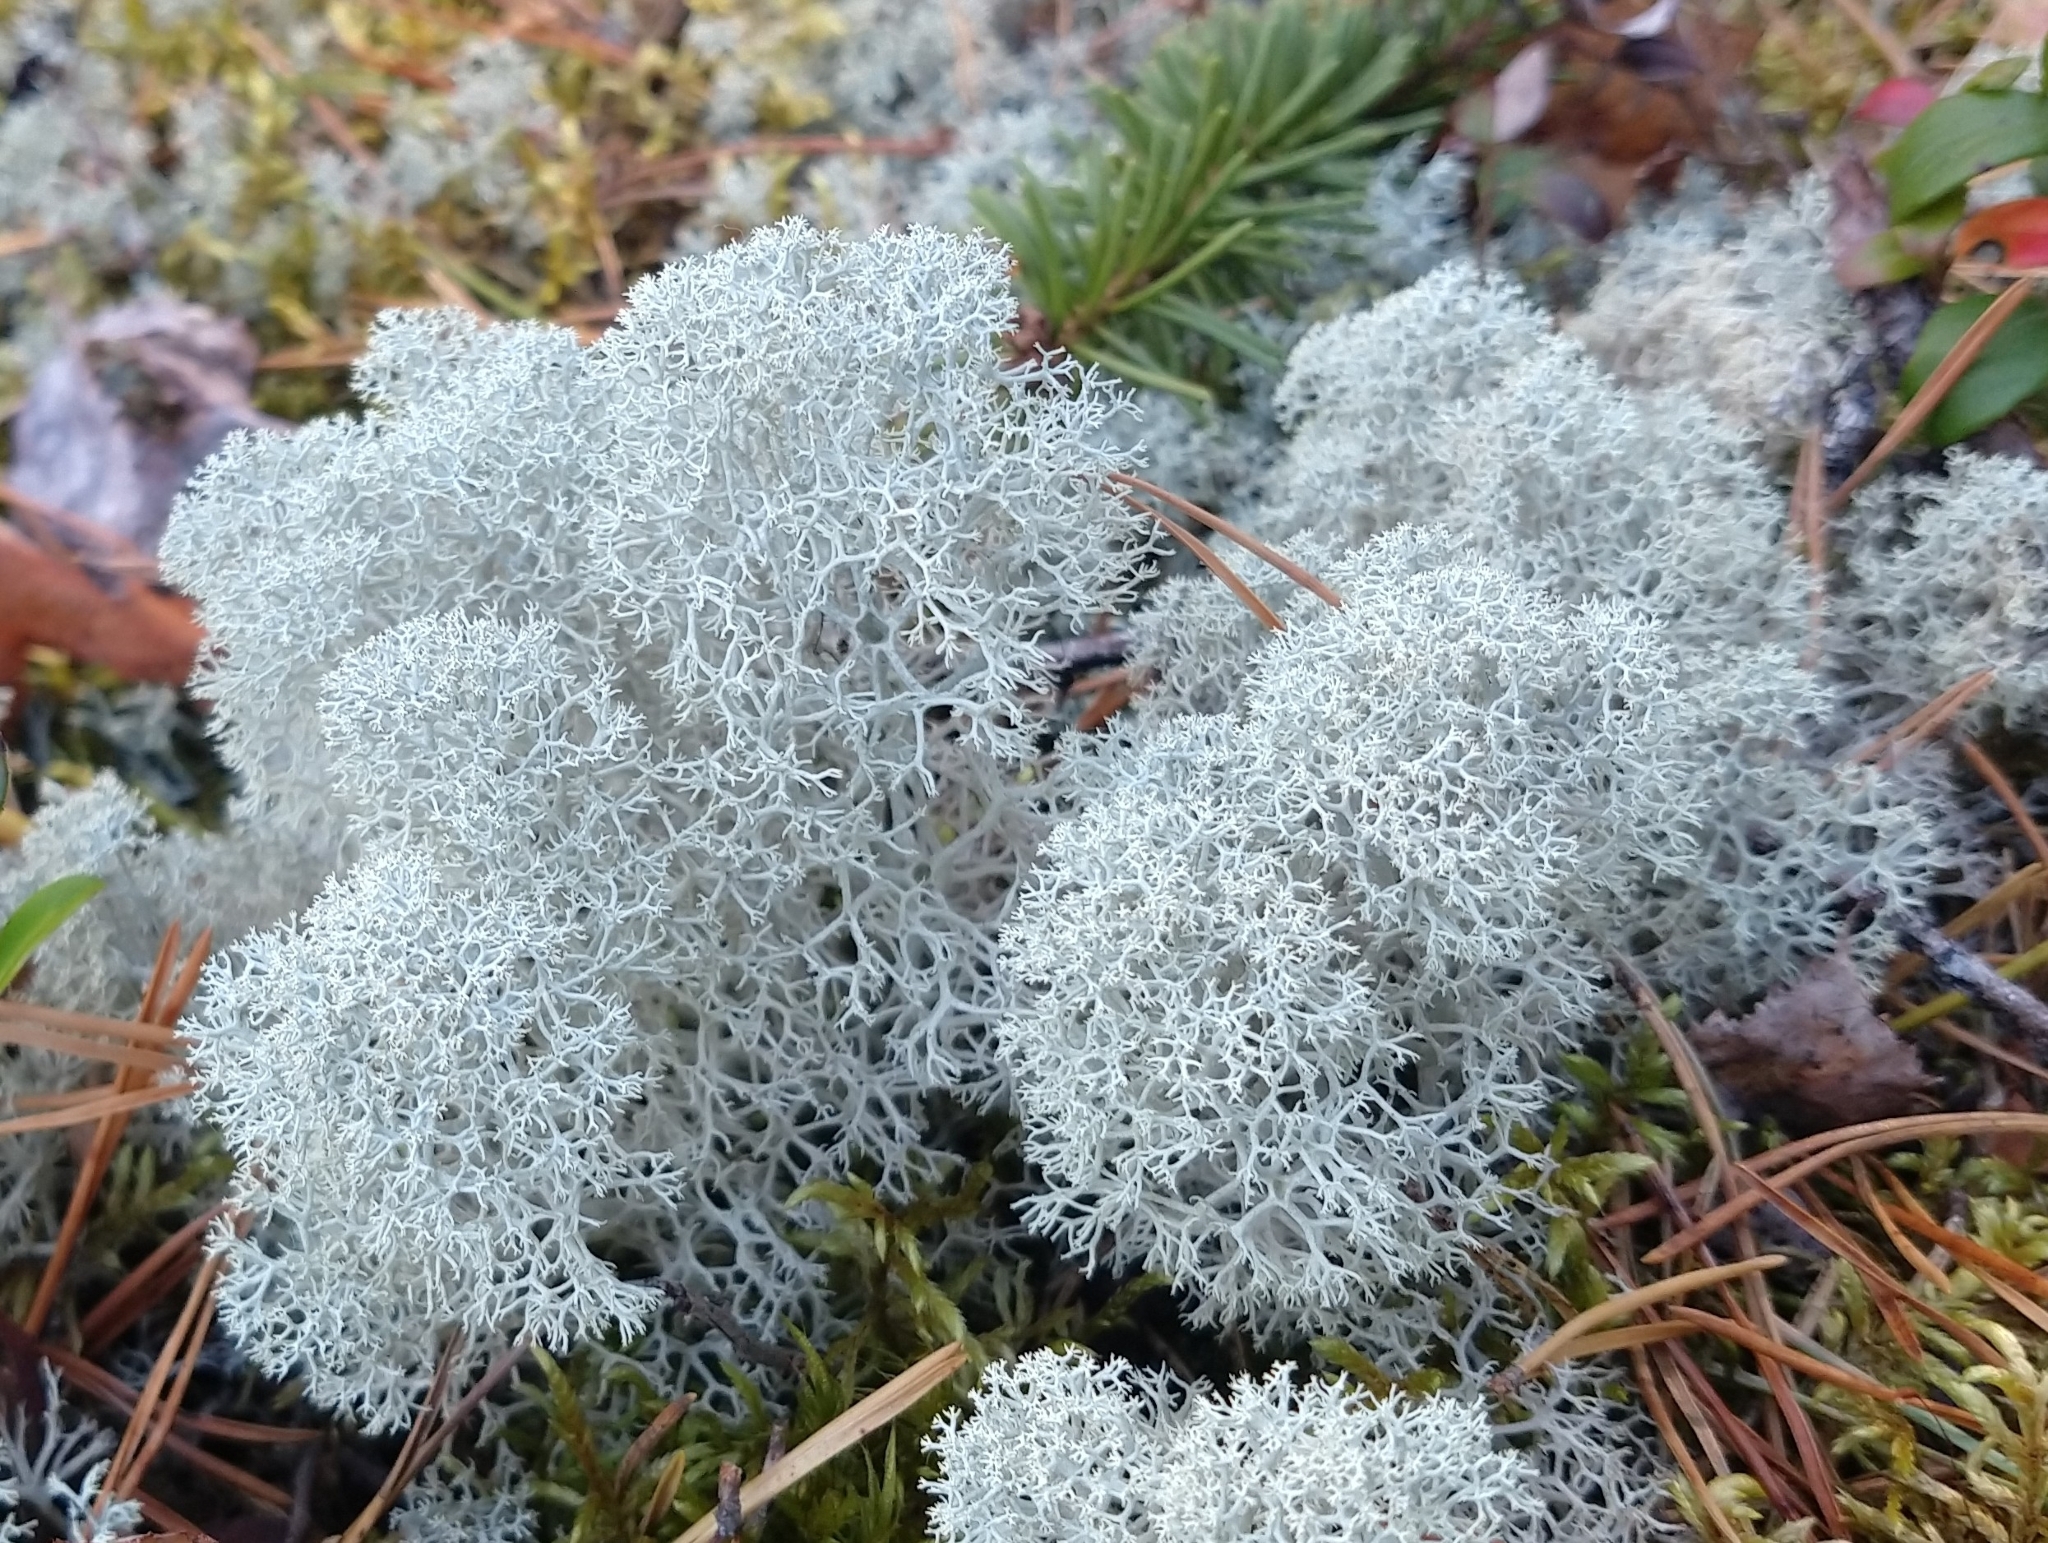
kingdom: Fungi
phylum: Ascomycota
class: Lecanoromycetes
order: Lecanorales
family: Cladoniaceae
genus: Cladonia
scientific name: Cladonia stellaris
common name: Star-tipped reindeer lichen
